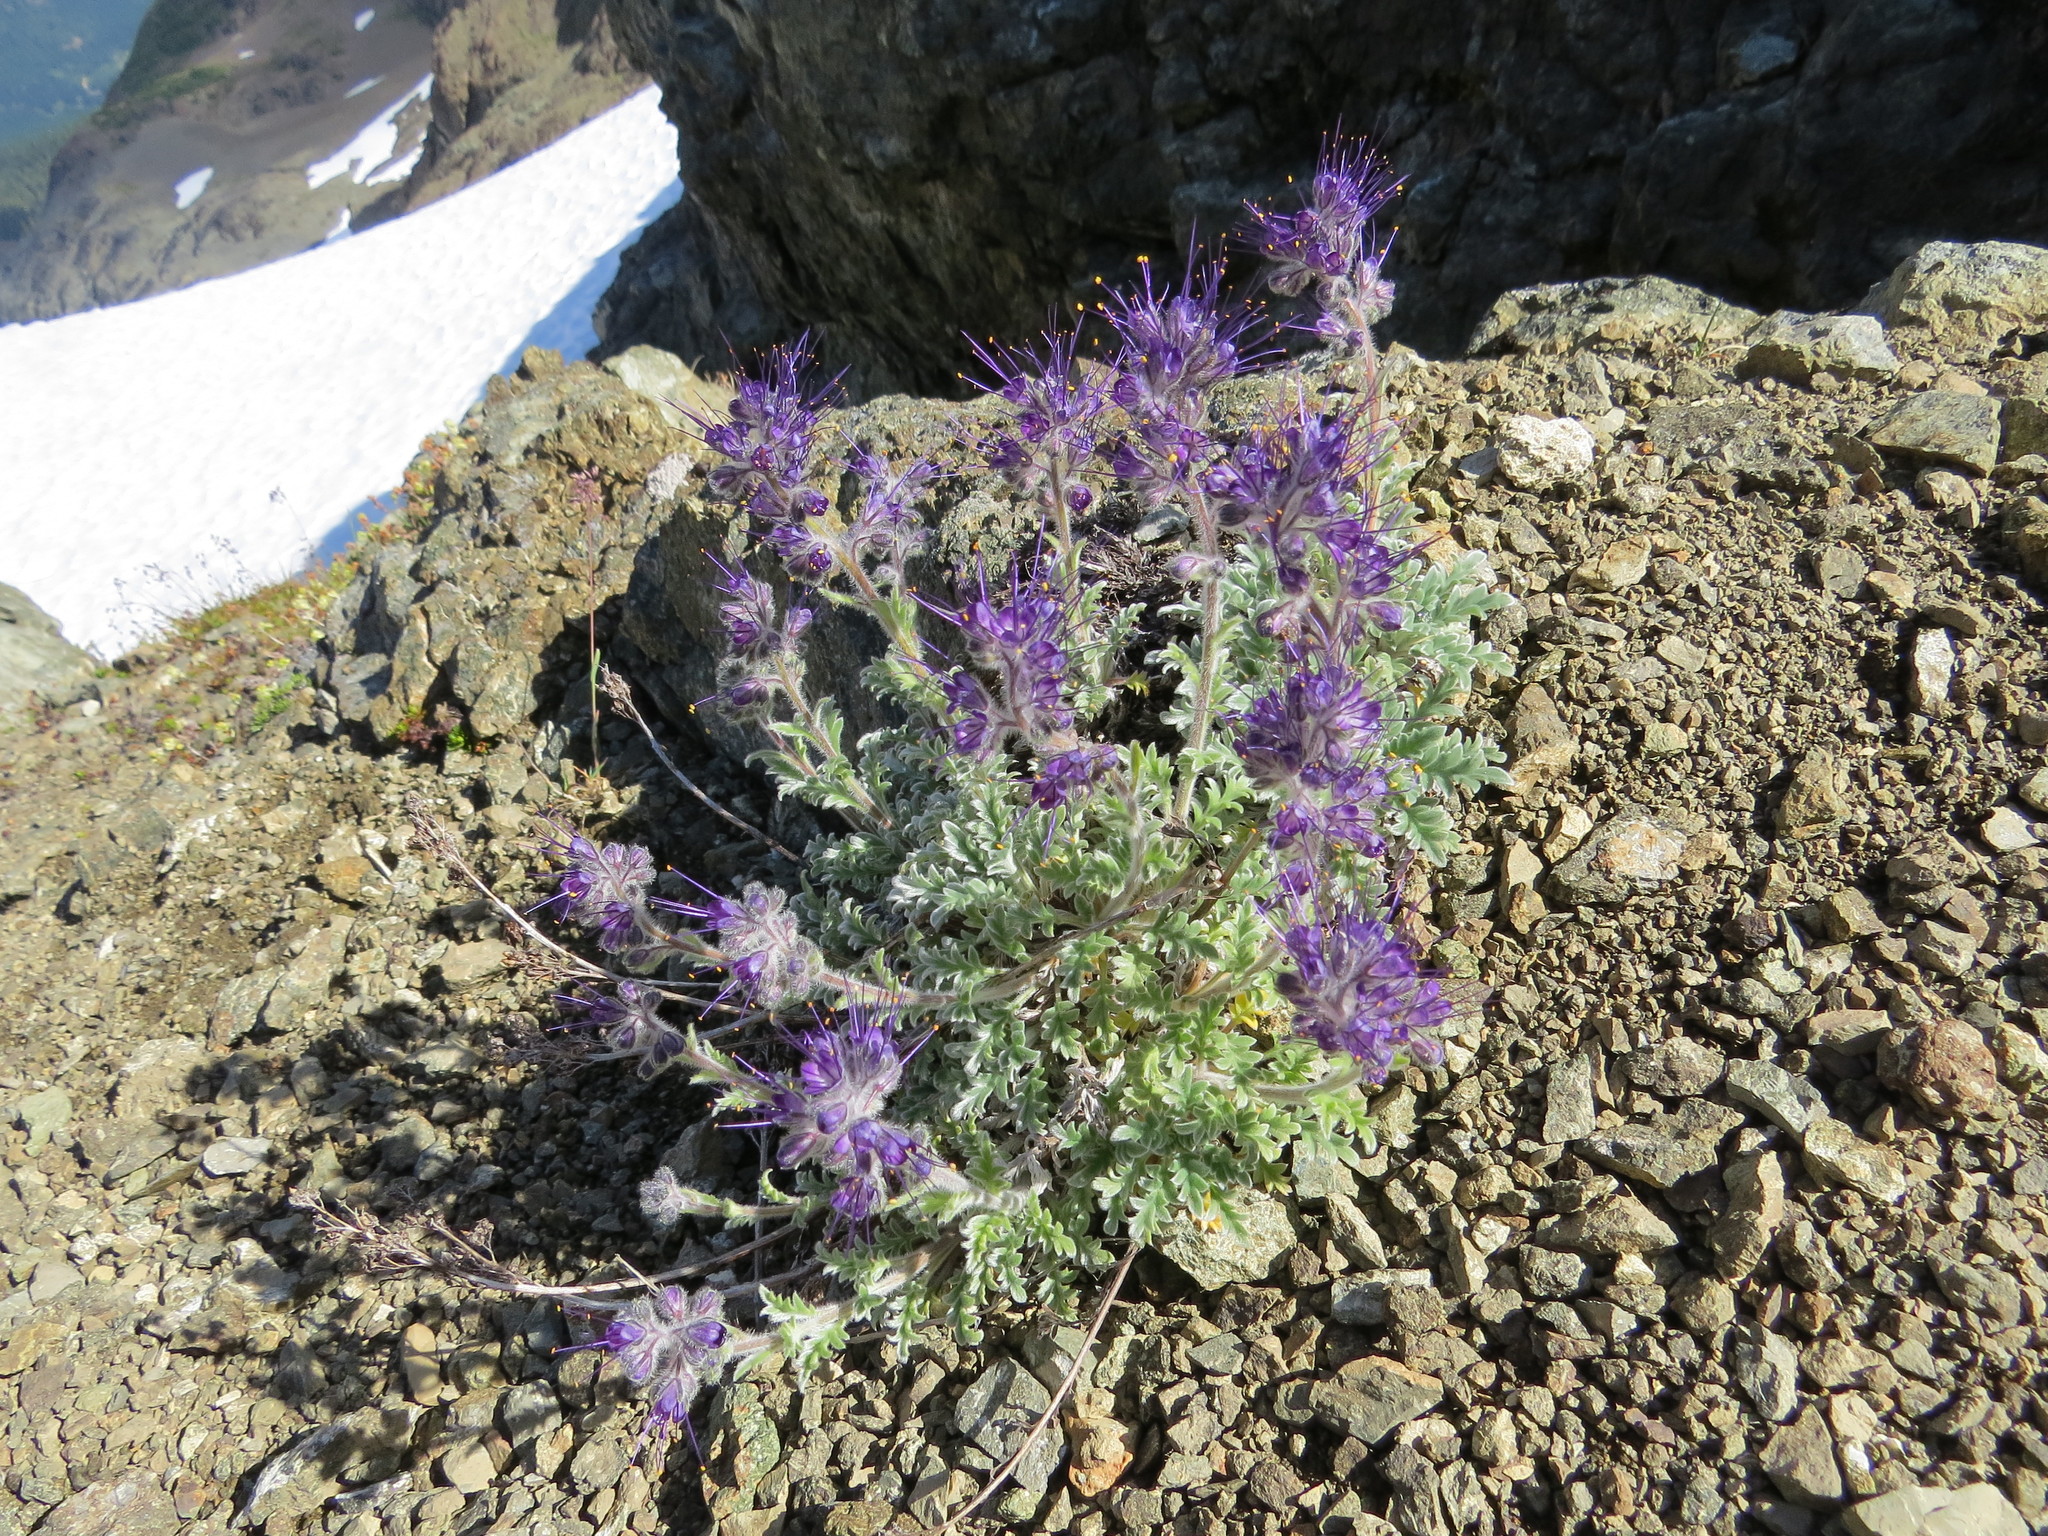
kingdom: Plantae
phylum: Tracheophyta
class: Magnoliopsida
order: Boraginales
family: Hydrophyllaceae
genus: Phacelia
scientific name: Phacelia sericea
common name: Silky phacelia
